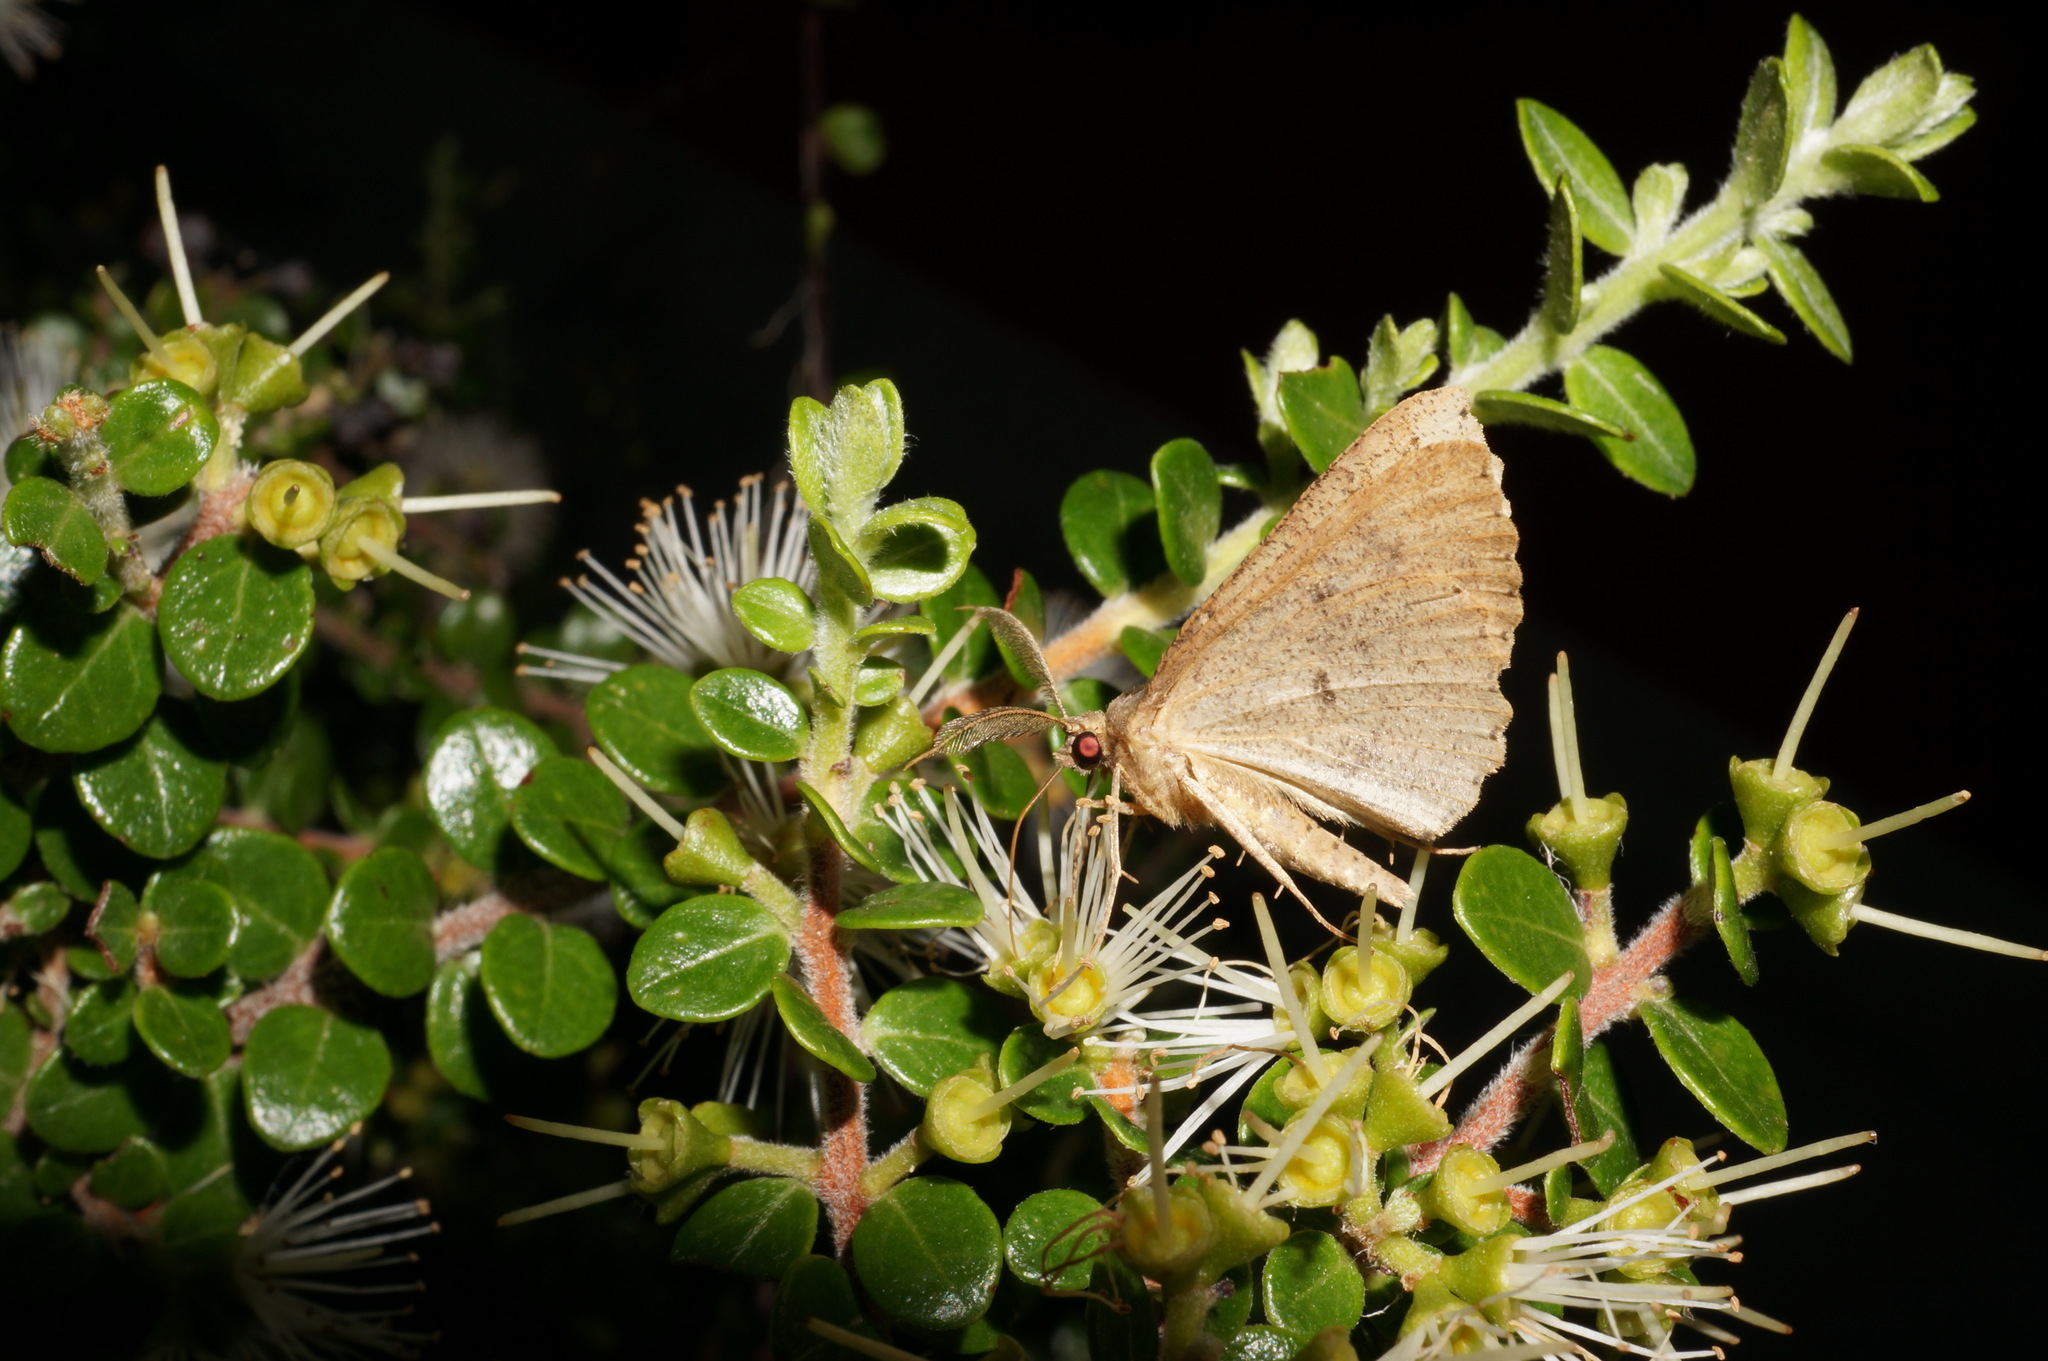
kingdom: Animalia
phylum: Arthropoda
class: Insecta
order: Lepidoptera
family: Geometridae
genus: Cleora
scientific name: Cleora scriptaria
